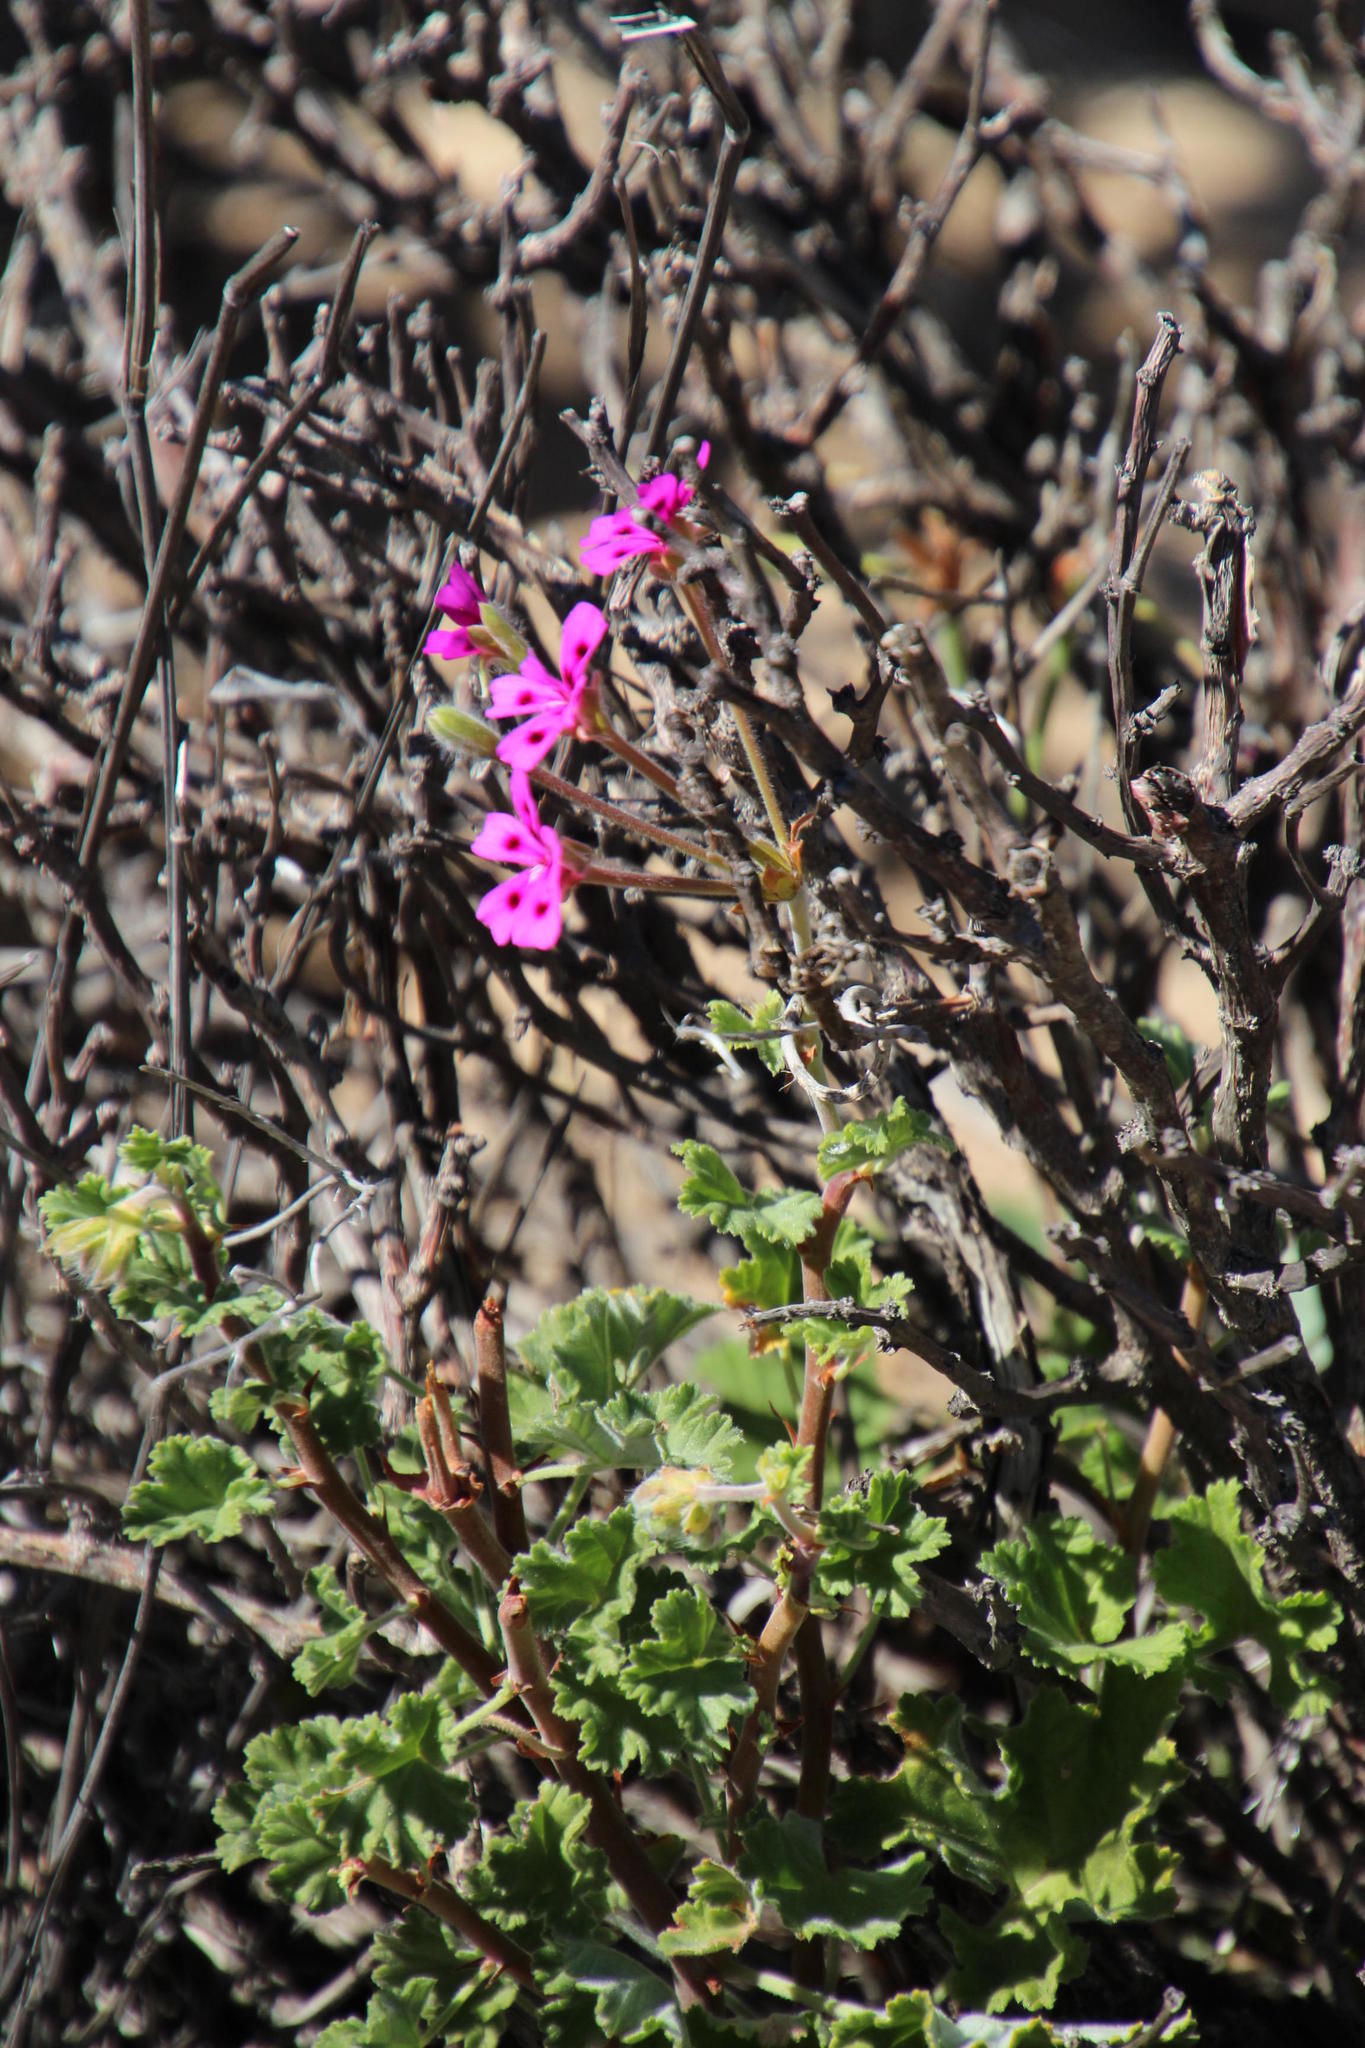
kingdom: Plantae
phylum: Tracheophyta
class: Magnoliopsida
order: Geraniales
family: Geraniaceae
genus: Pelargonium
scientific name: Pelargonium magenteum
